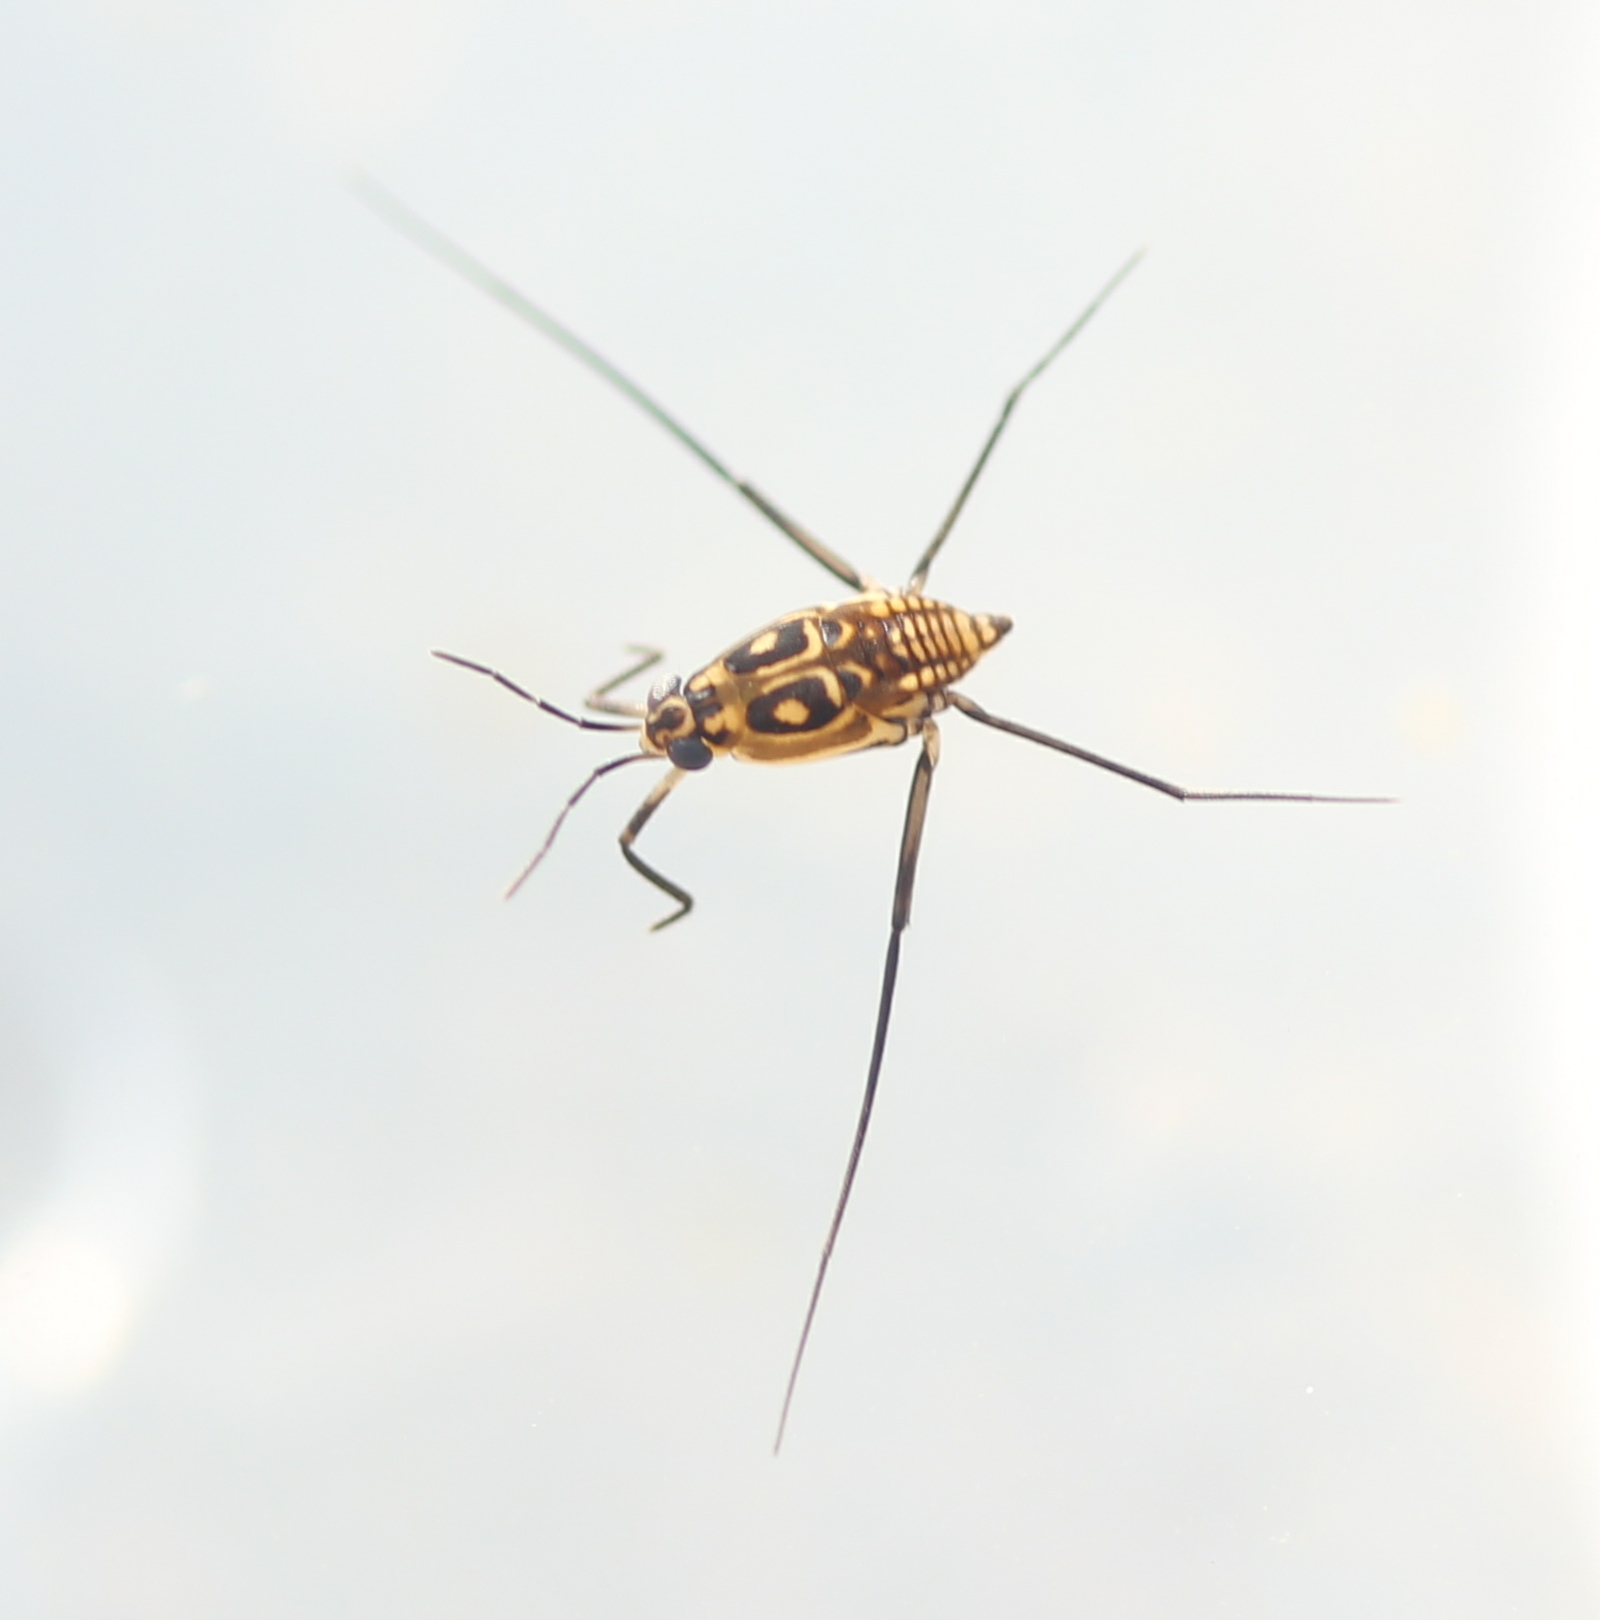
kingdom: Animalia
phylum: Arthropoda
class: Insecta
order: Hemiptera
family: Gerridae
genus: Trepobates
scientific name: Trepobates
